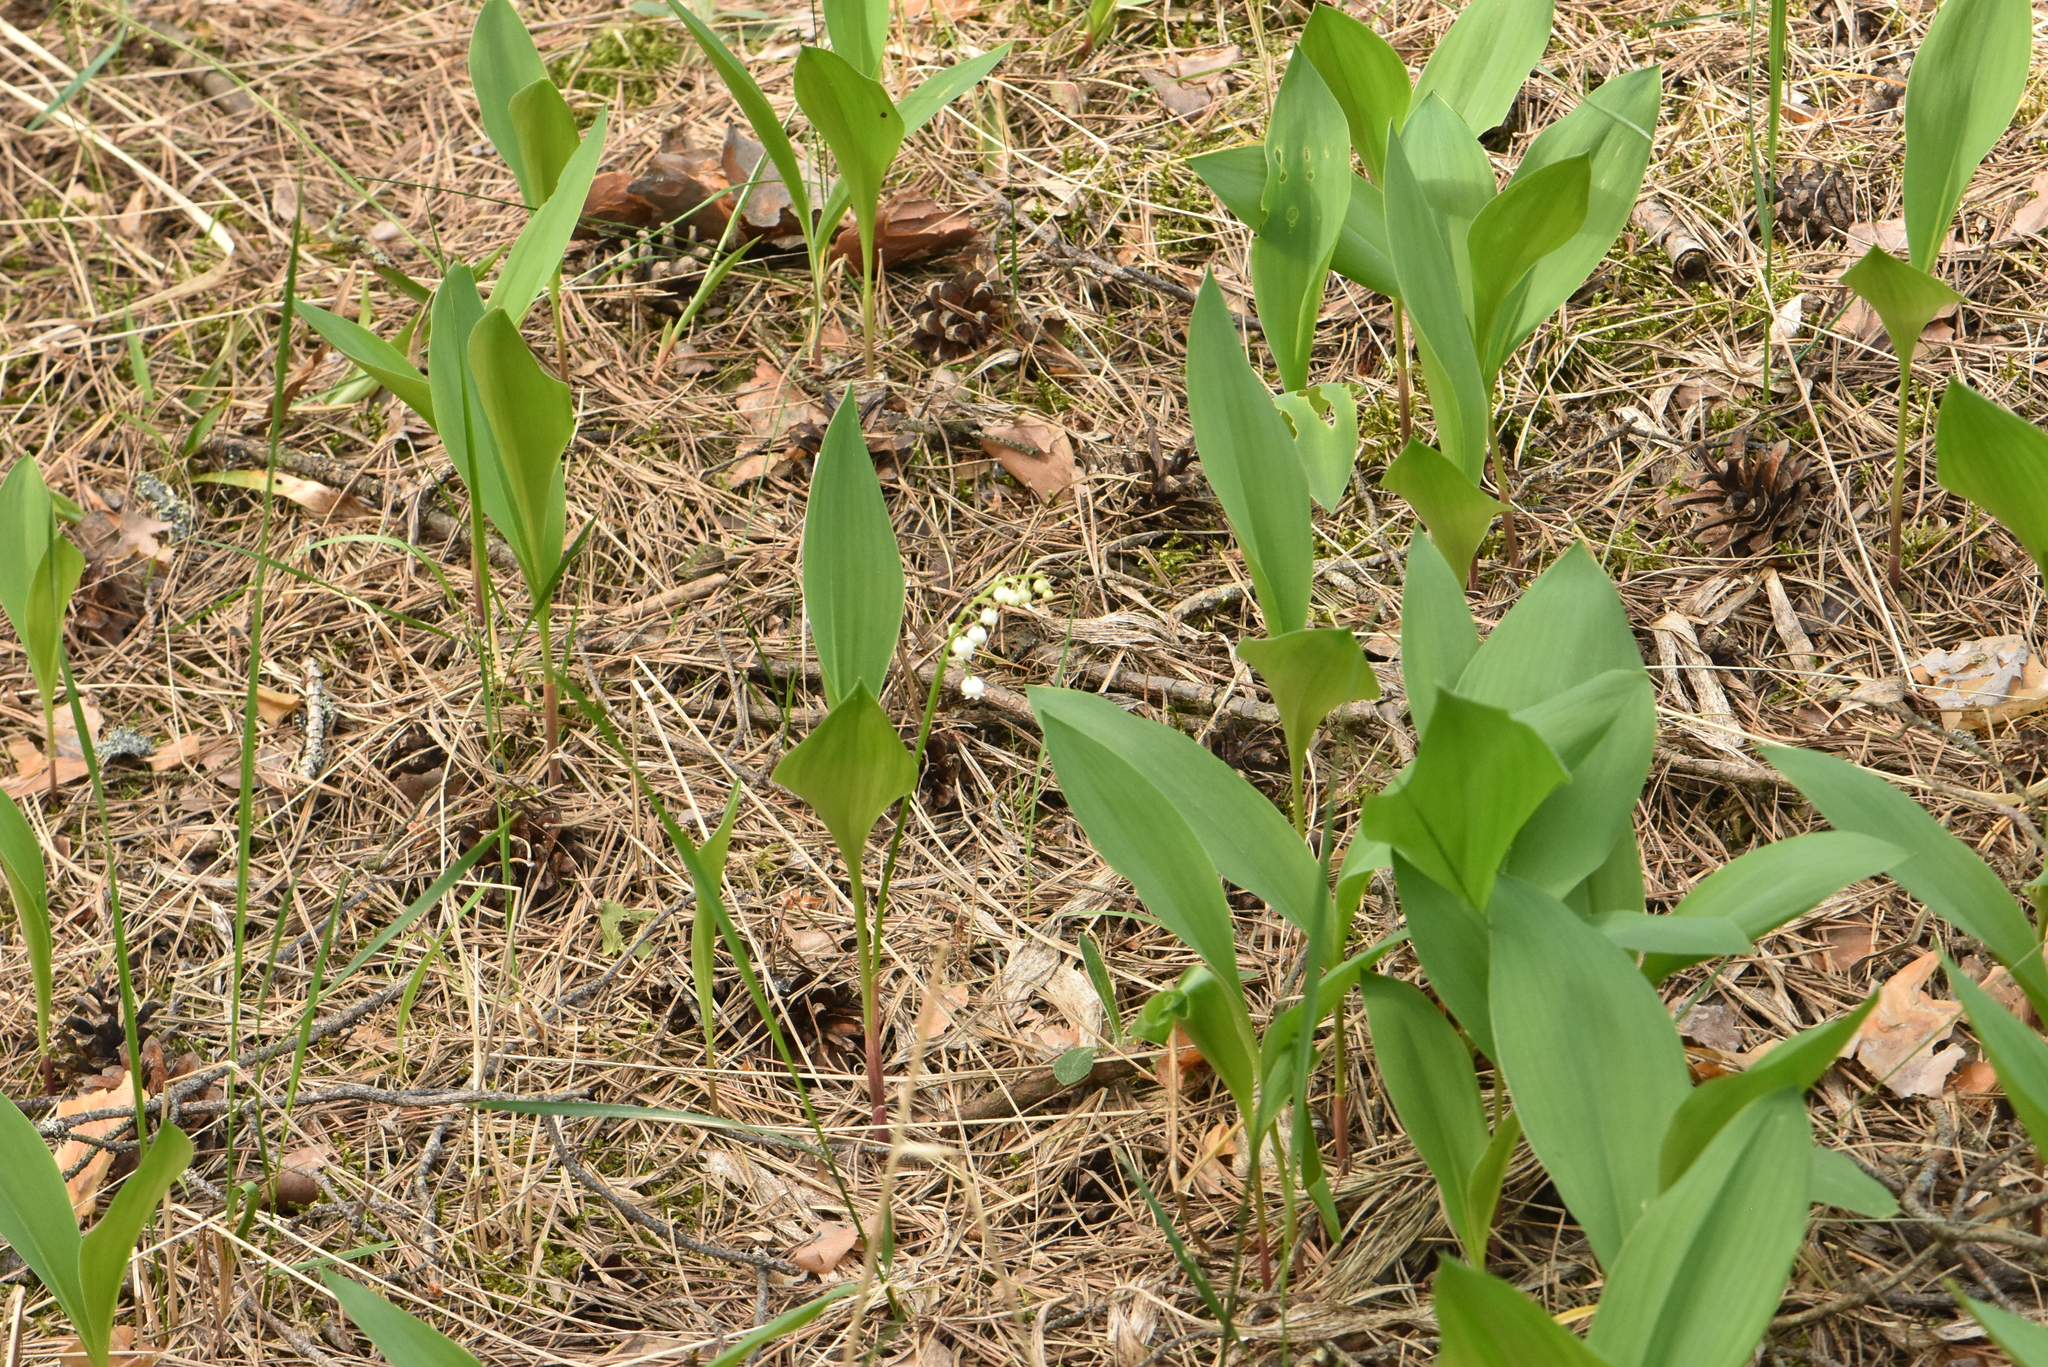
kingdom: Plantae
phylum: Tracheophyta
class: Liliopsida
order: Asparagales
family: Asparagaceae
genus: Convallaria
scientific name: Convallaria majalis
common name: Lily-of-the-valley
